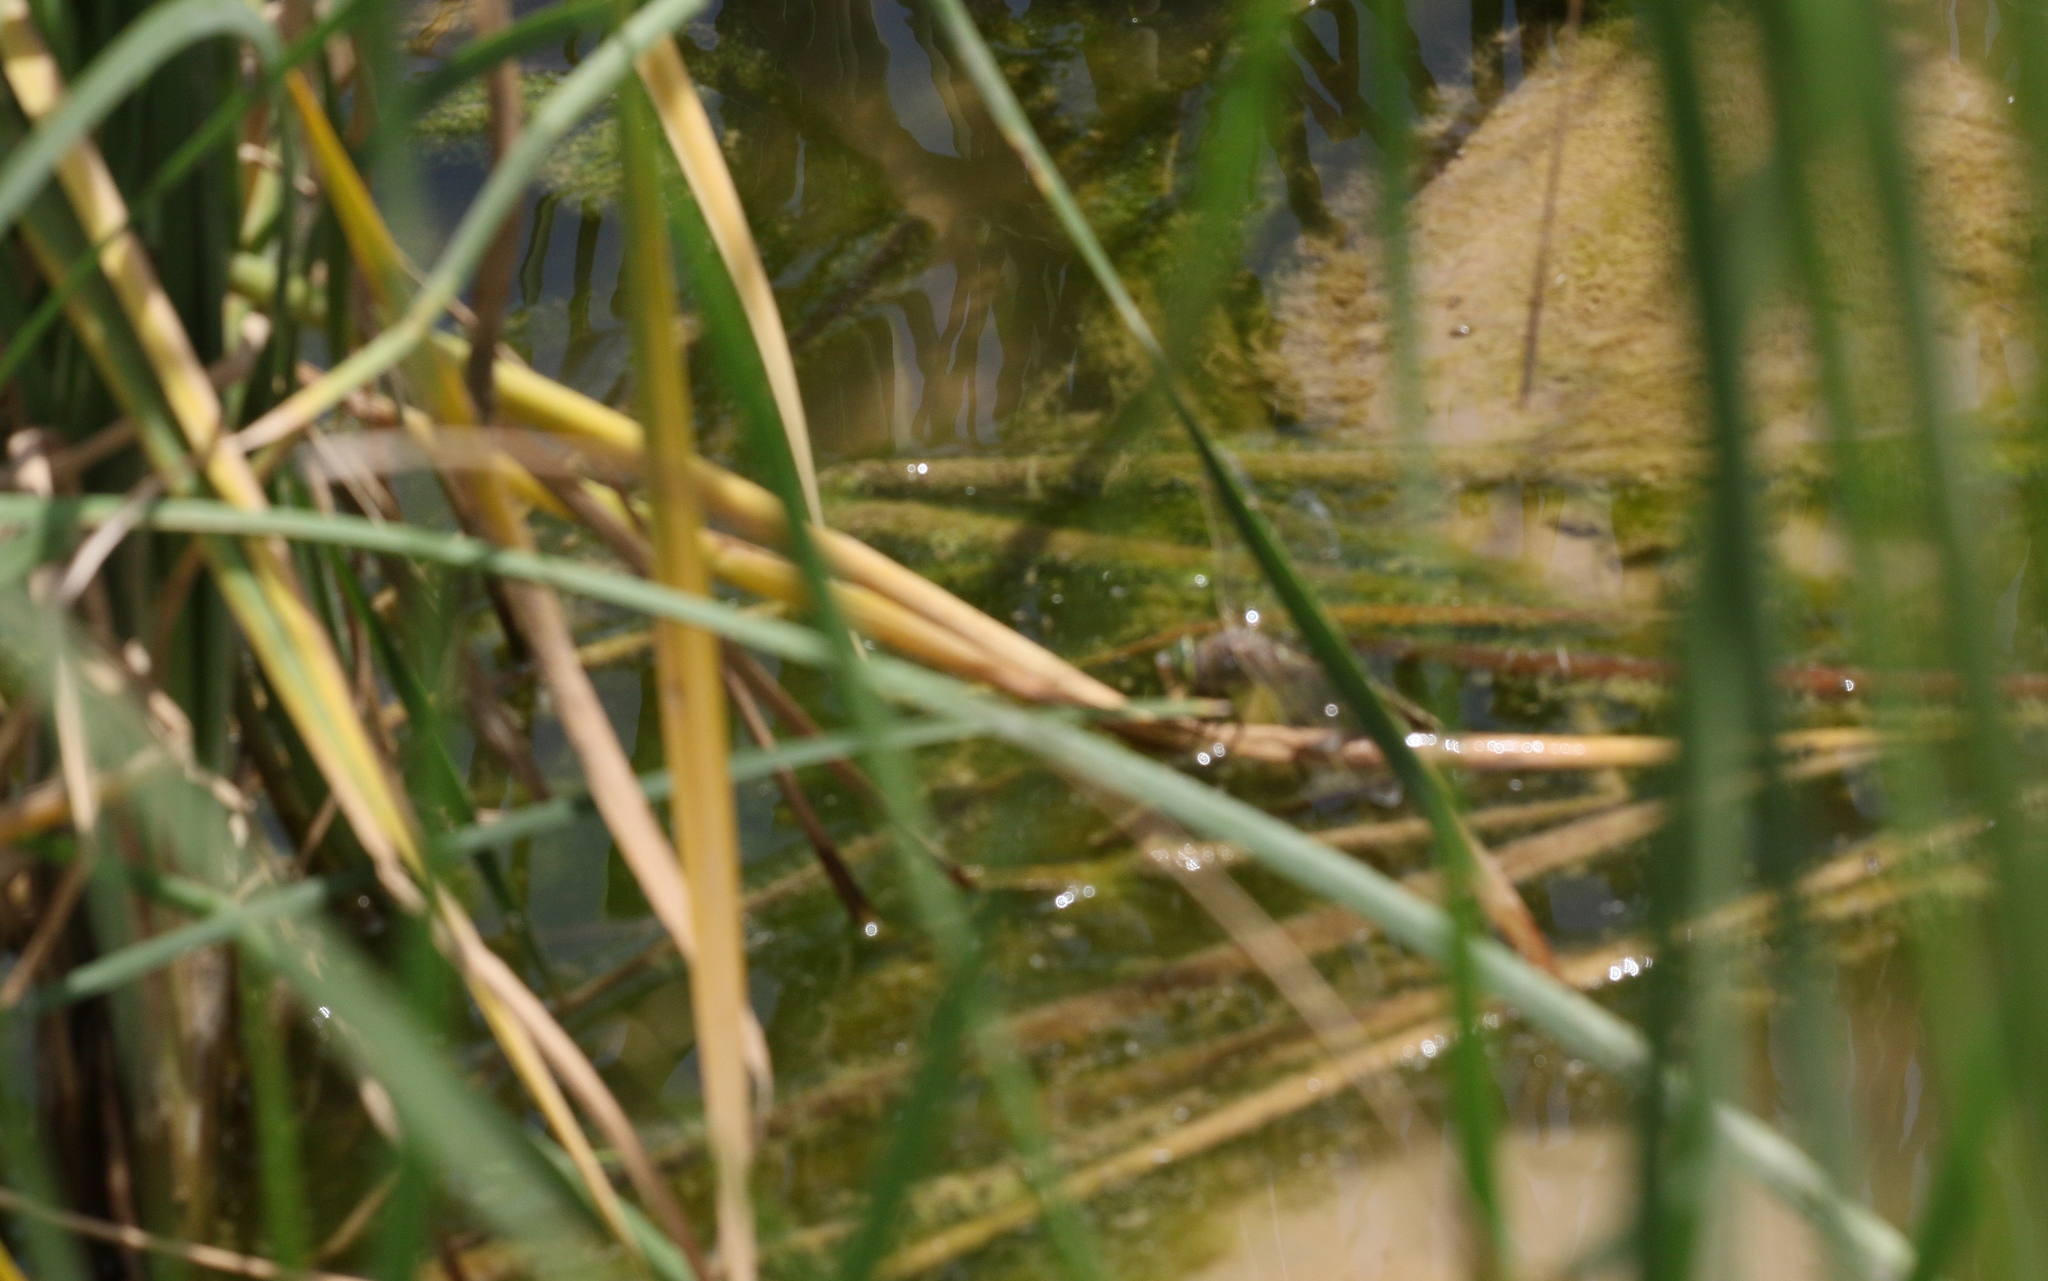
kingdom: Animalia
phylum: Arthropoda
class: Insecta
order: Odonata
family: Aeshnidae
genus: Anax
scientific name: Anax parthenope
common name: Lesser emperor
